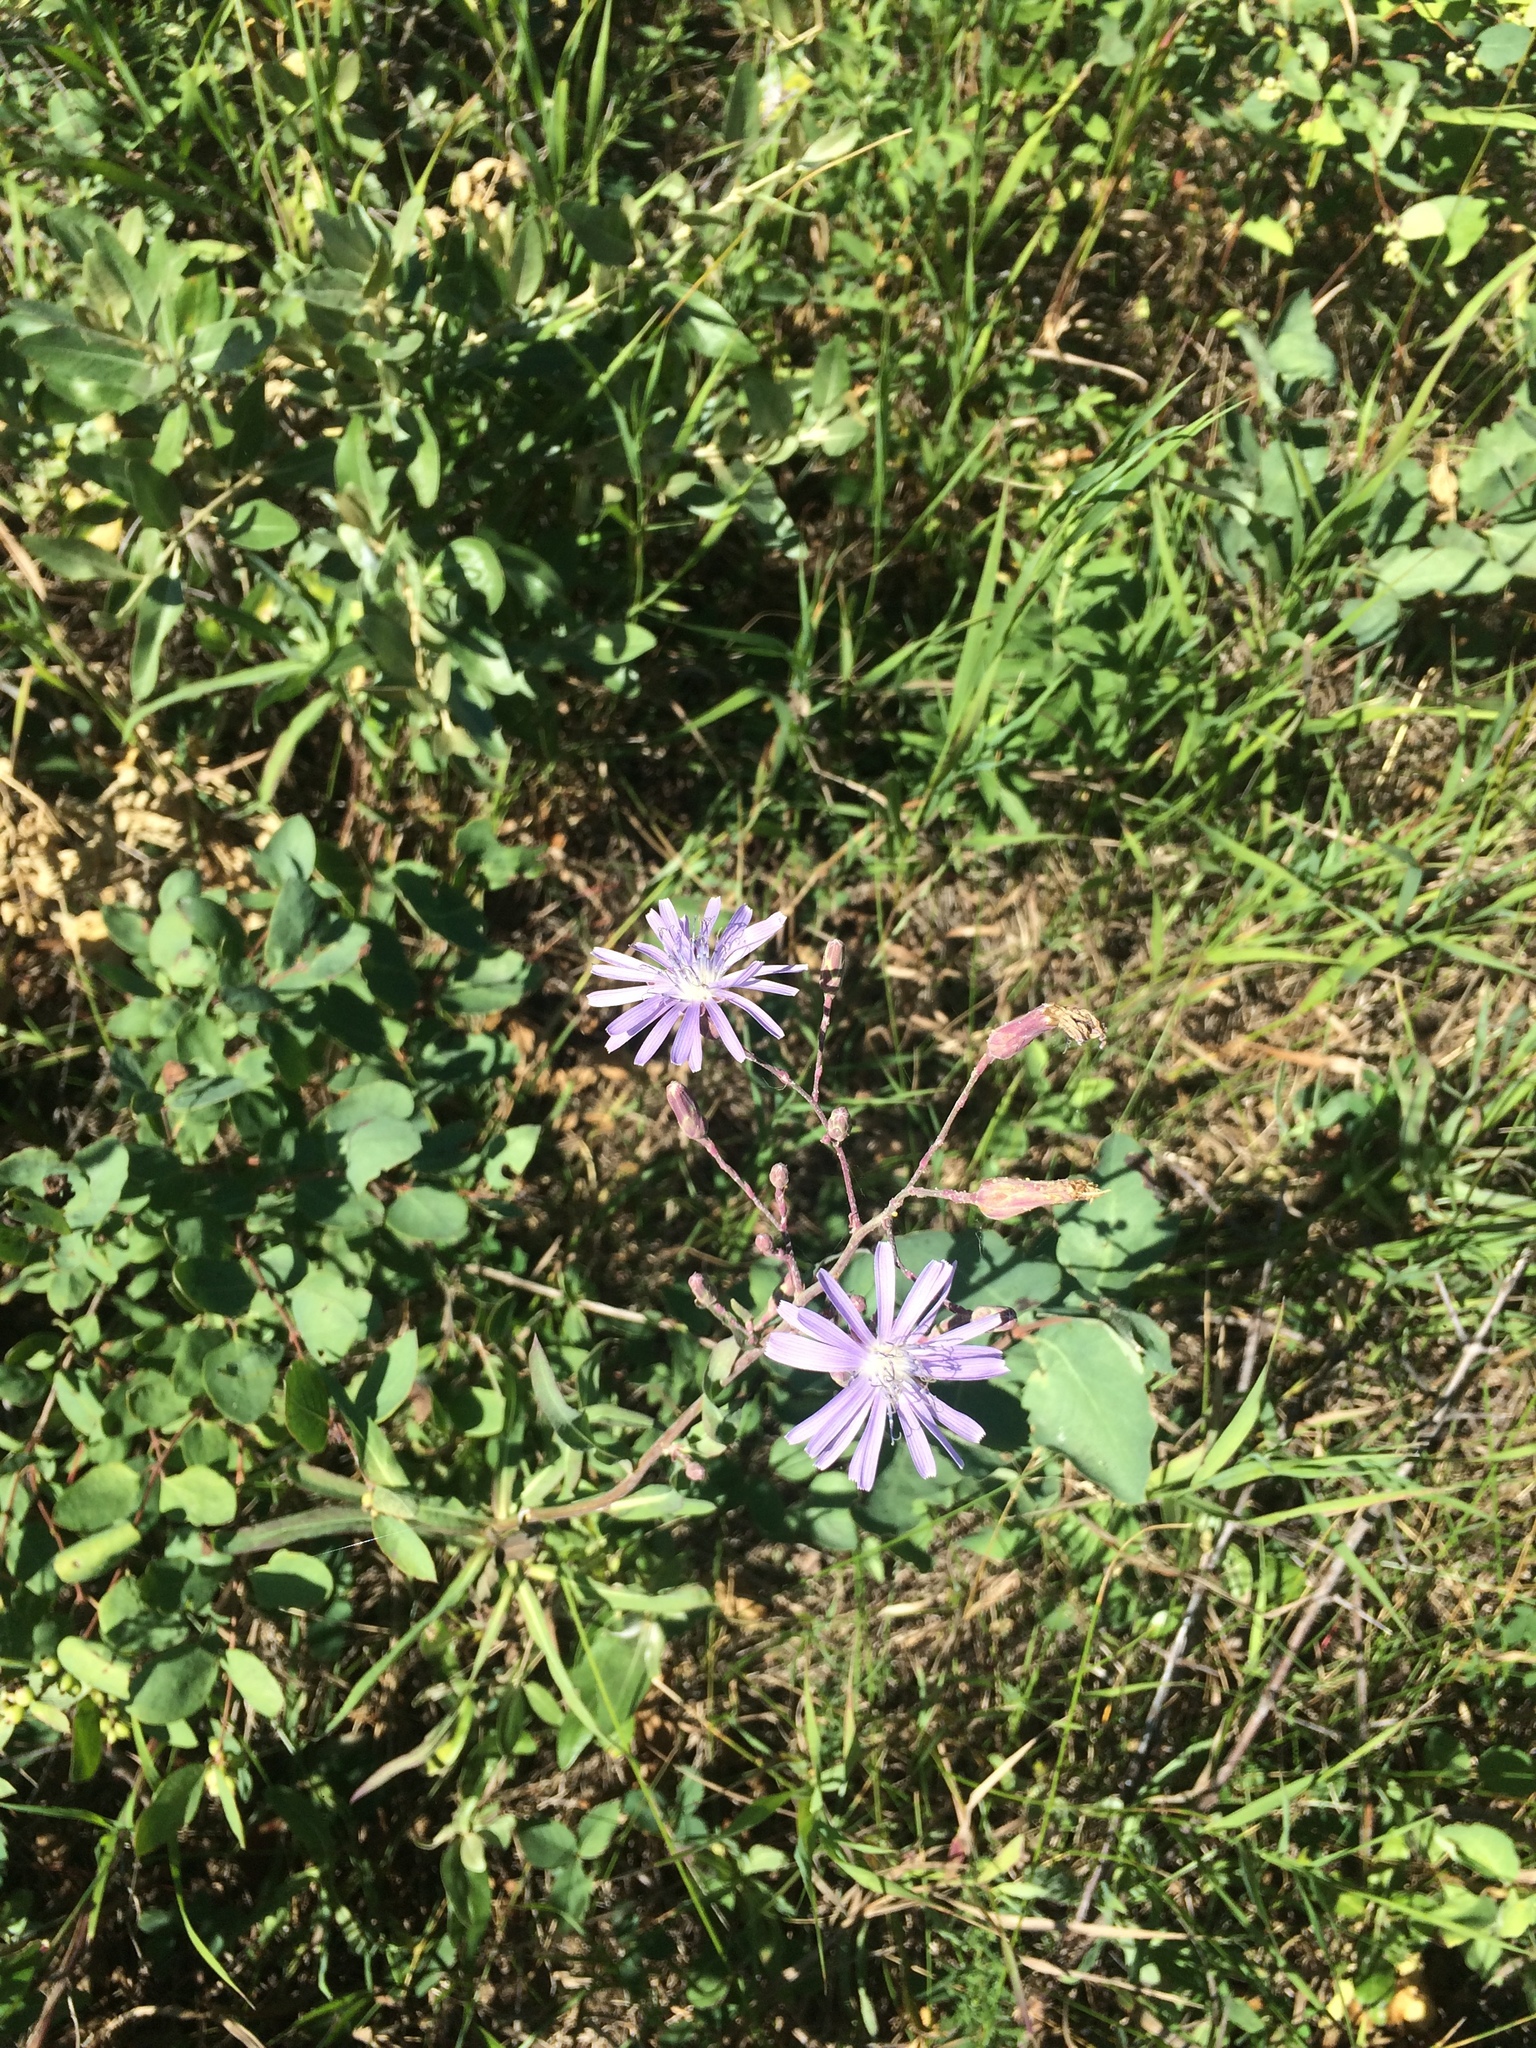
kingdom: Plantae
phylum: Tracheophyta
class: Magnoliopsida
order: Asterales
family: Asteraceae
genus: Lactuca
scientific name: Lactuca pulchella
